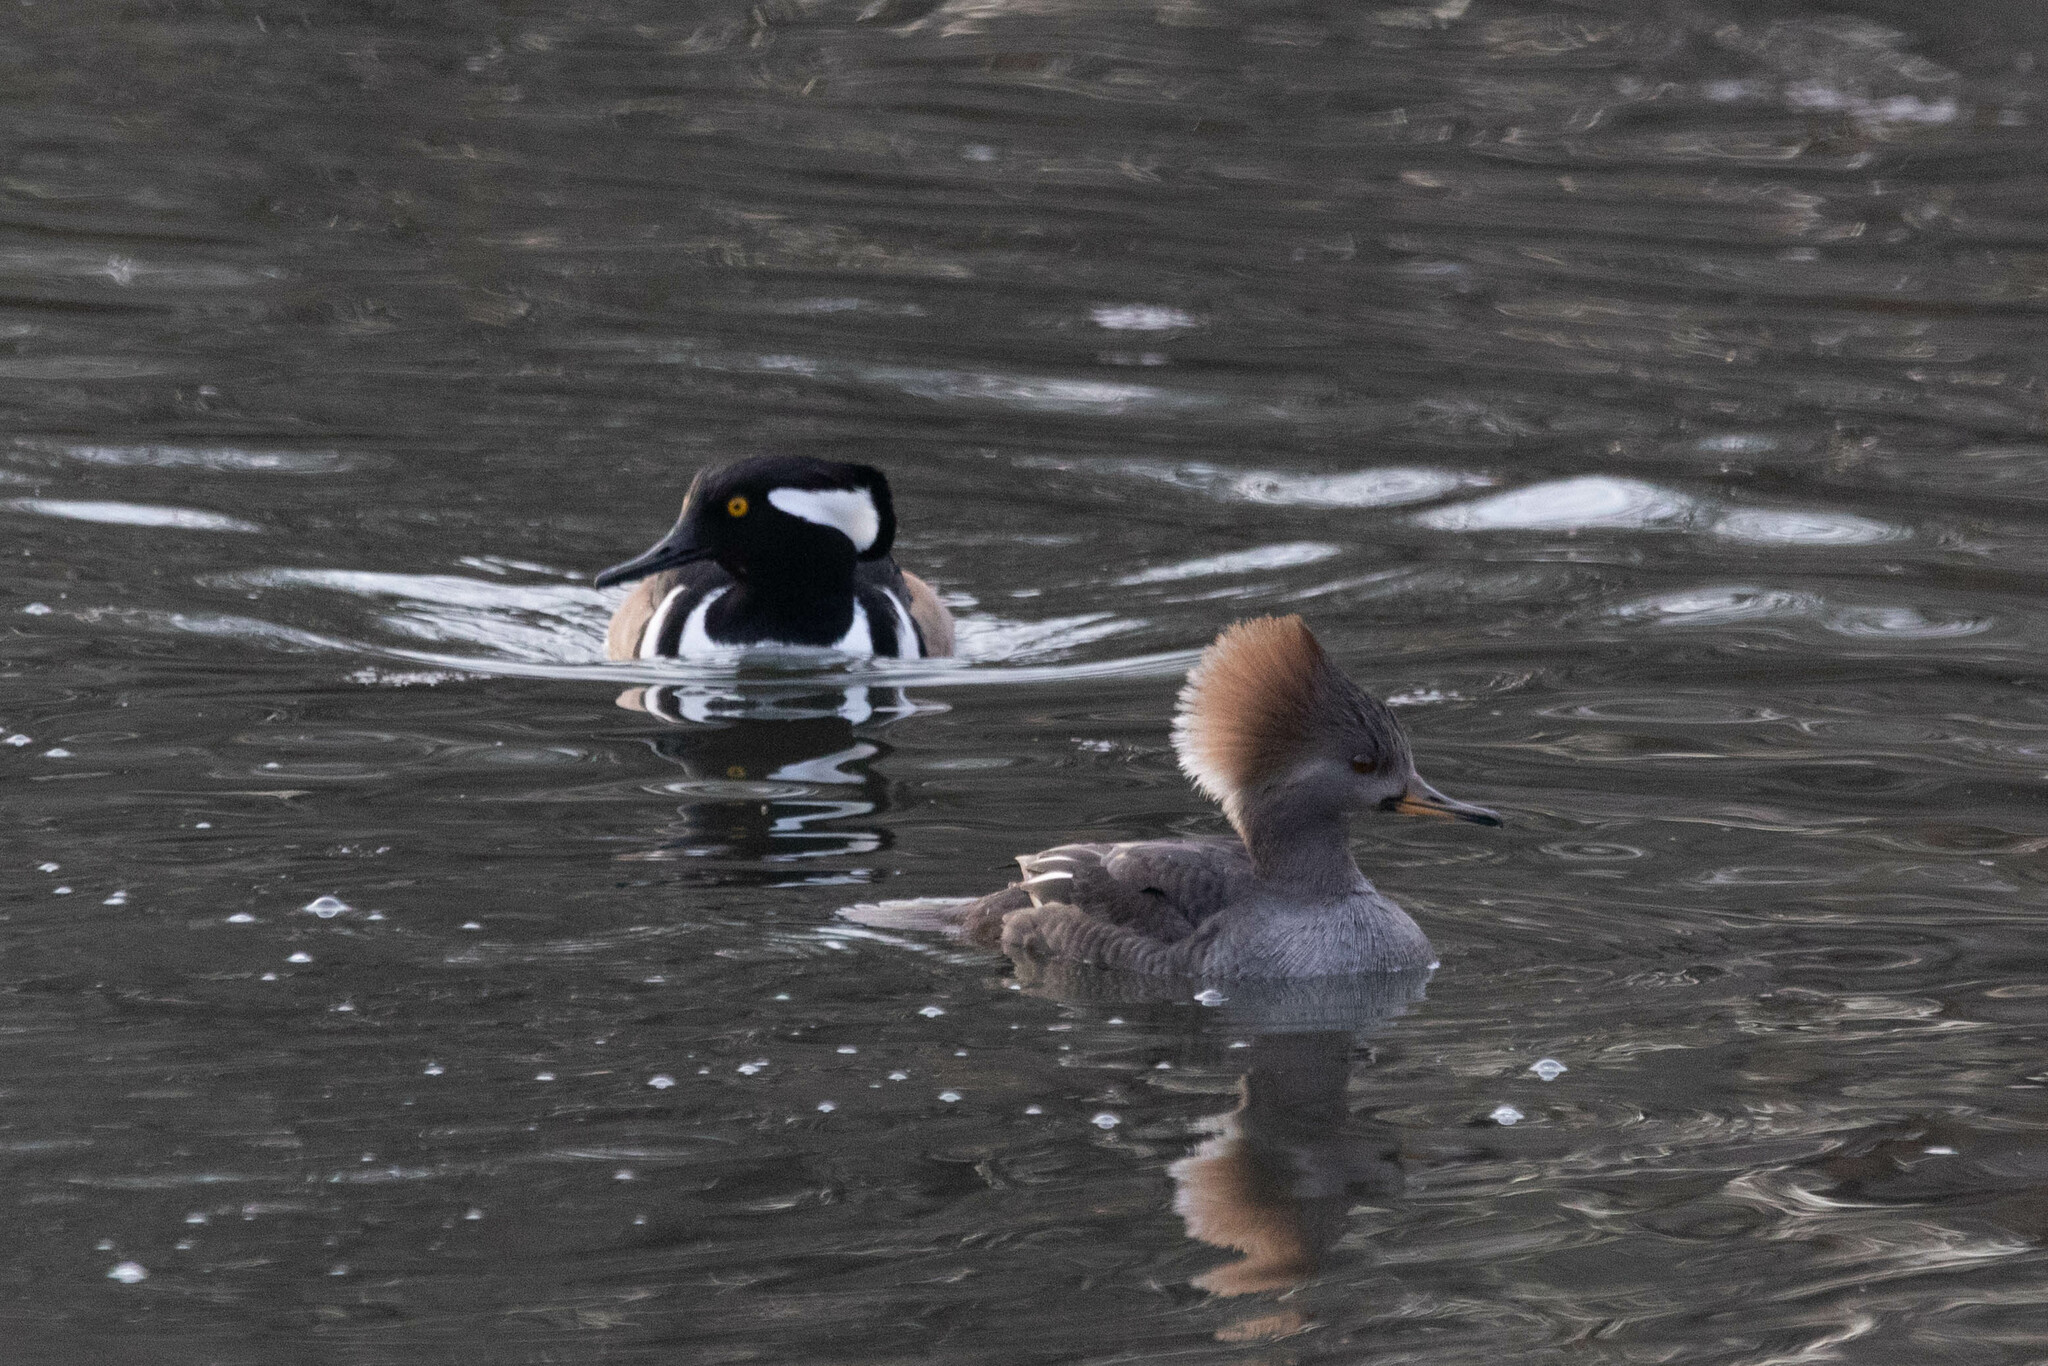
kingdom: Animalia
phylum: Chordata
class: Aves
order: Anseriformes
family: Anatidae
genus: Lophodytes
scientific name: Lophodytes cucullatus
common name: Hooded merganser
